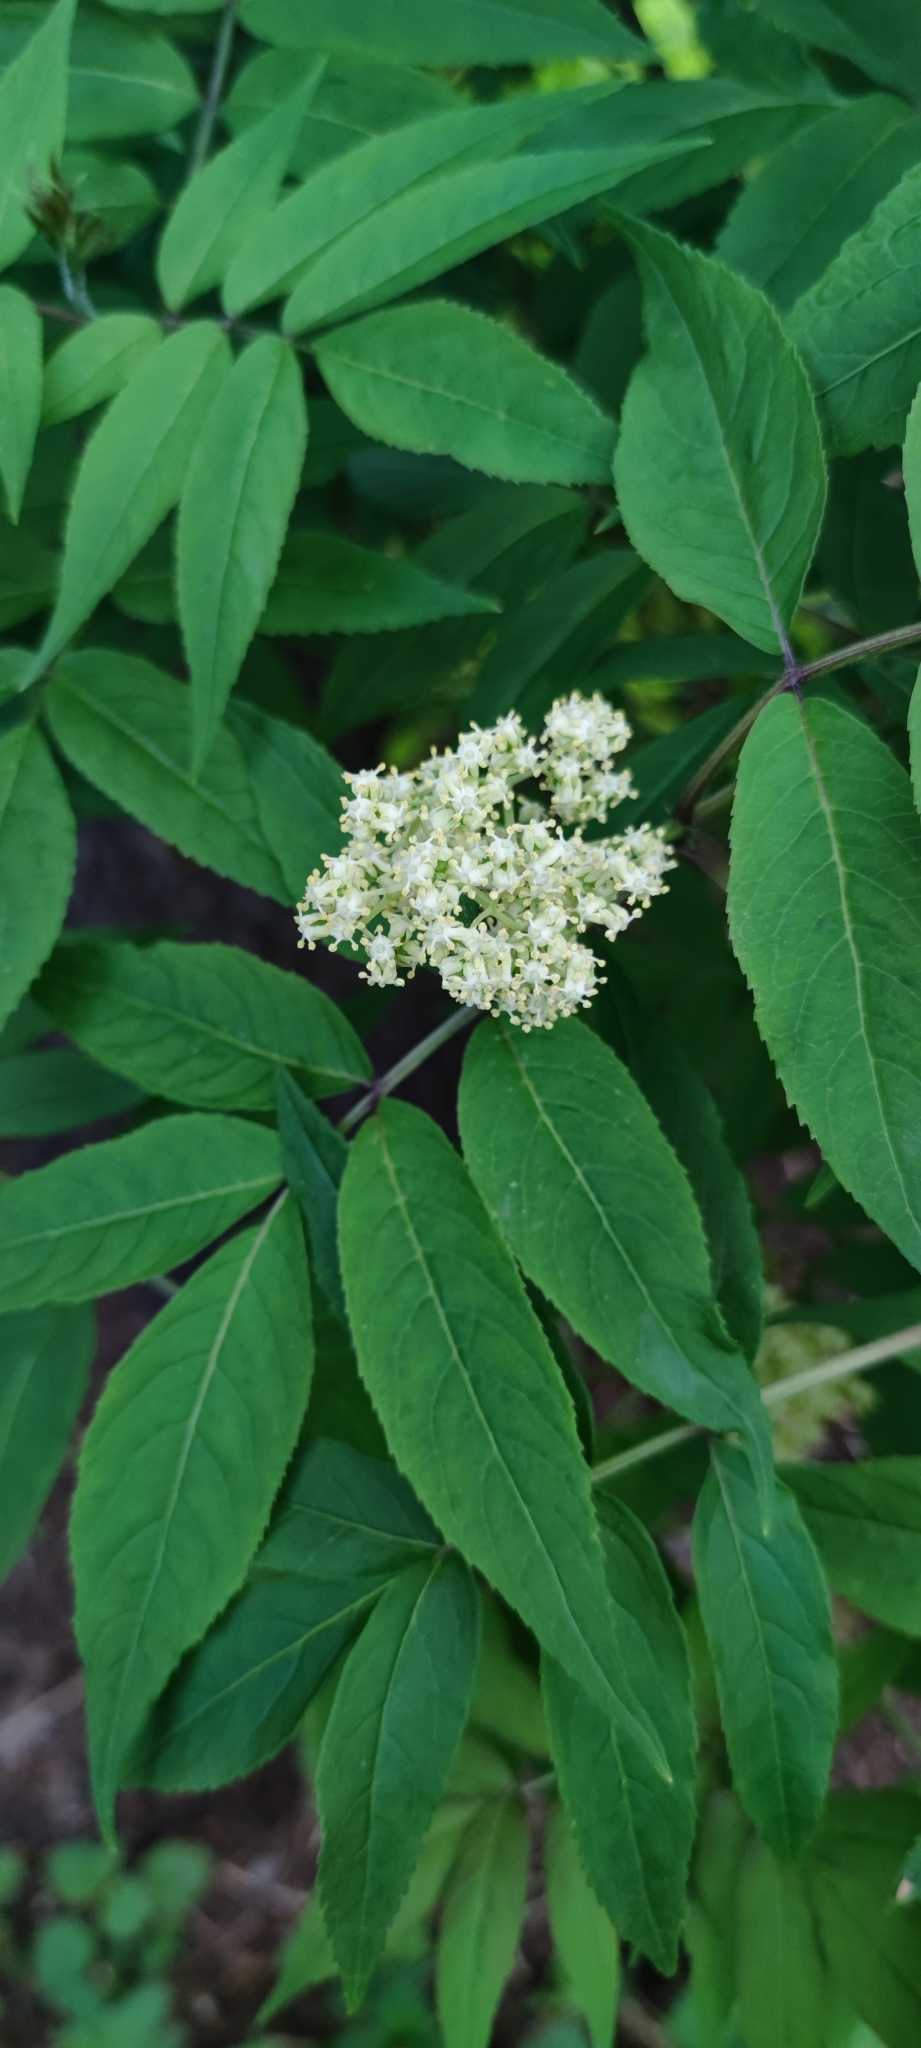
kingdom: Plantae
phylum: Tracheophyta
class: Magnoliopsida
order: Dipsacales
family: Viburnaceae
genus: Sambucus
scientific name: Sambucus racemosa
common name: Red-berried elder
